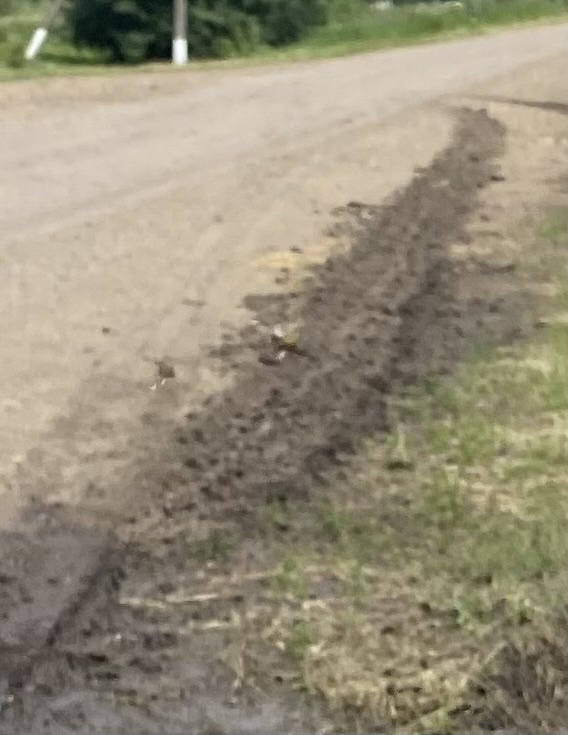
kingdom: Animalia
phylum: Chordata
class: Aves
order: Passeriformes
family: Motacillidae
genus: Motacilla
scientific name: Motacilla flava
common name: Western yellow wagtail
